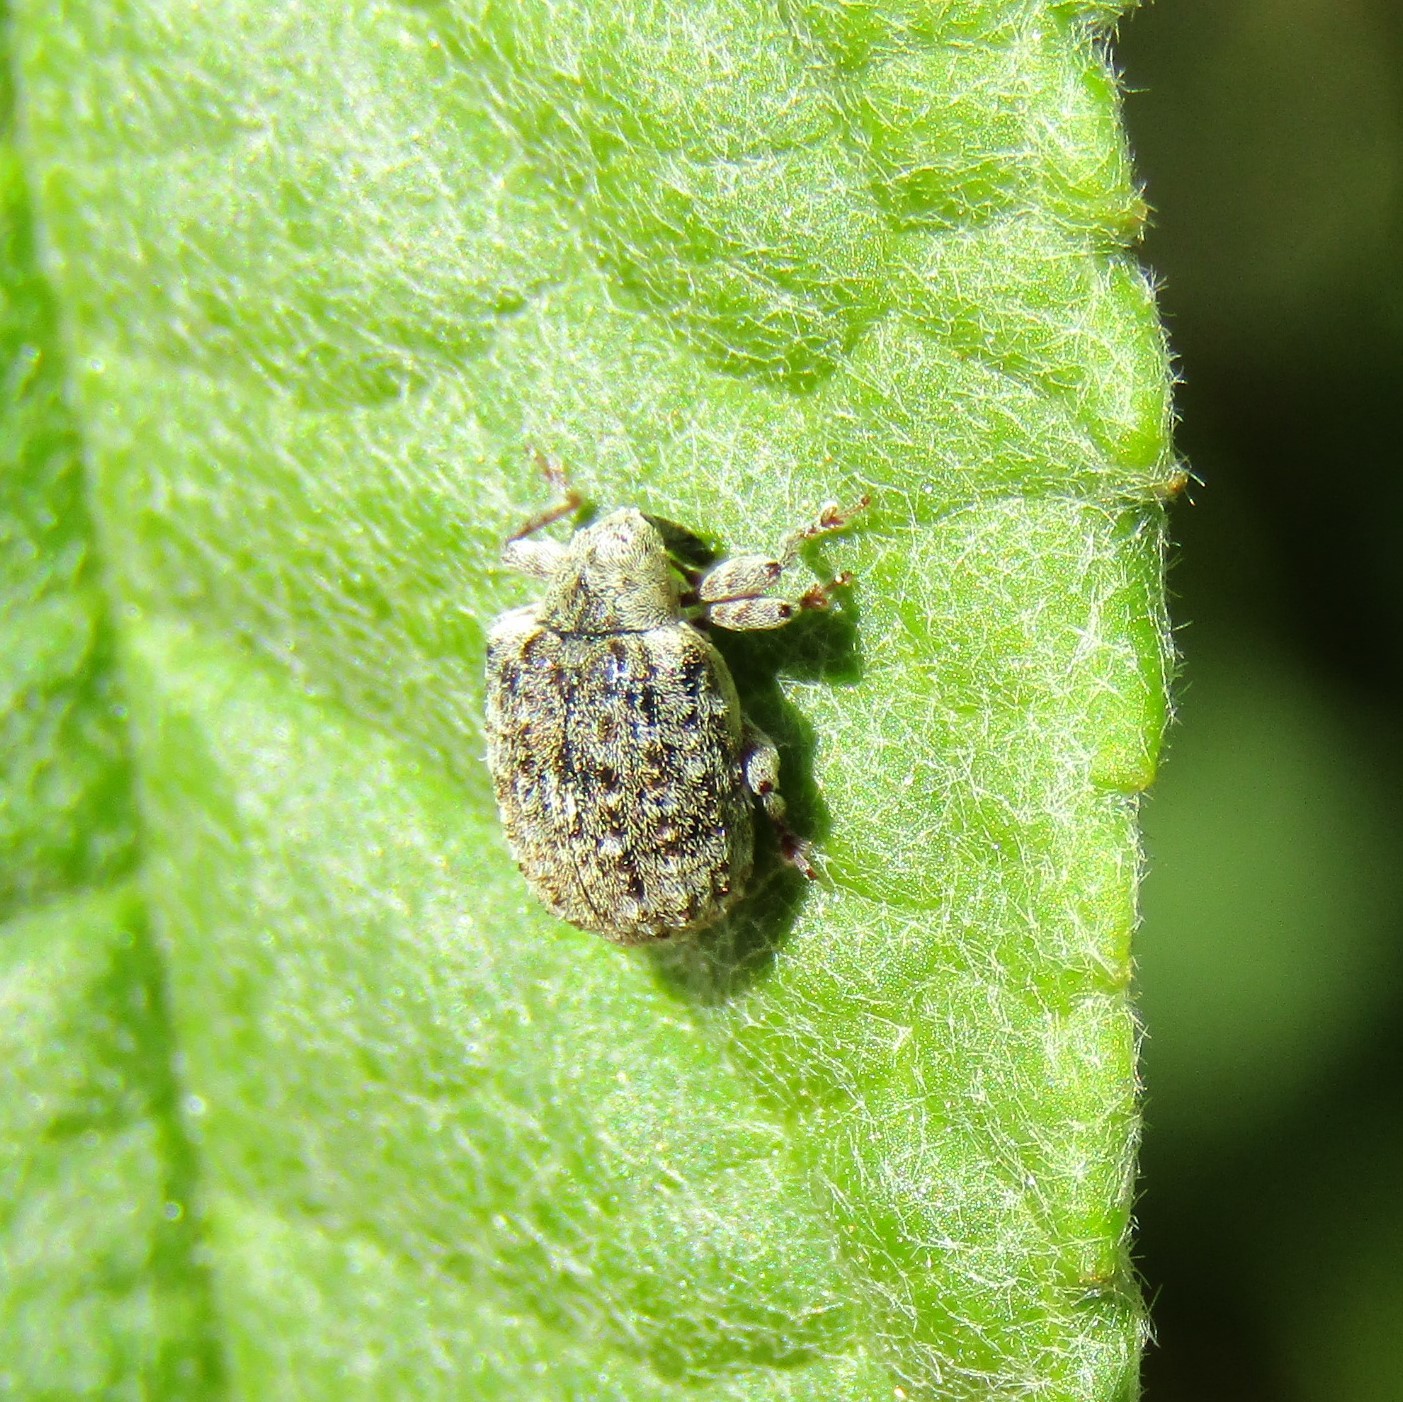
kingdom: Animalia
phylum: Arthropoda
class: Insecta
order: Coleoptera
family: Curculionidae
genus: Cleopus
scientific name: Cleopus japonicus
